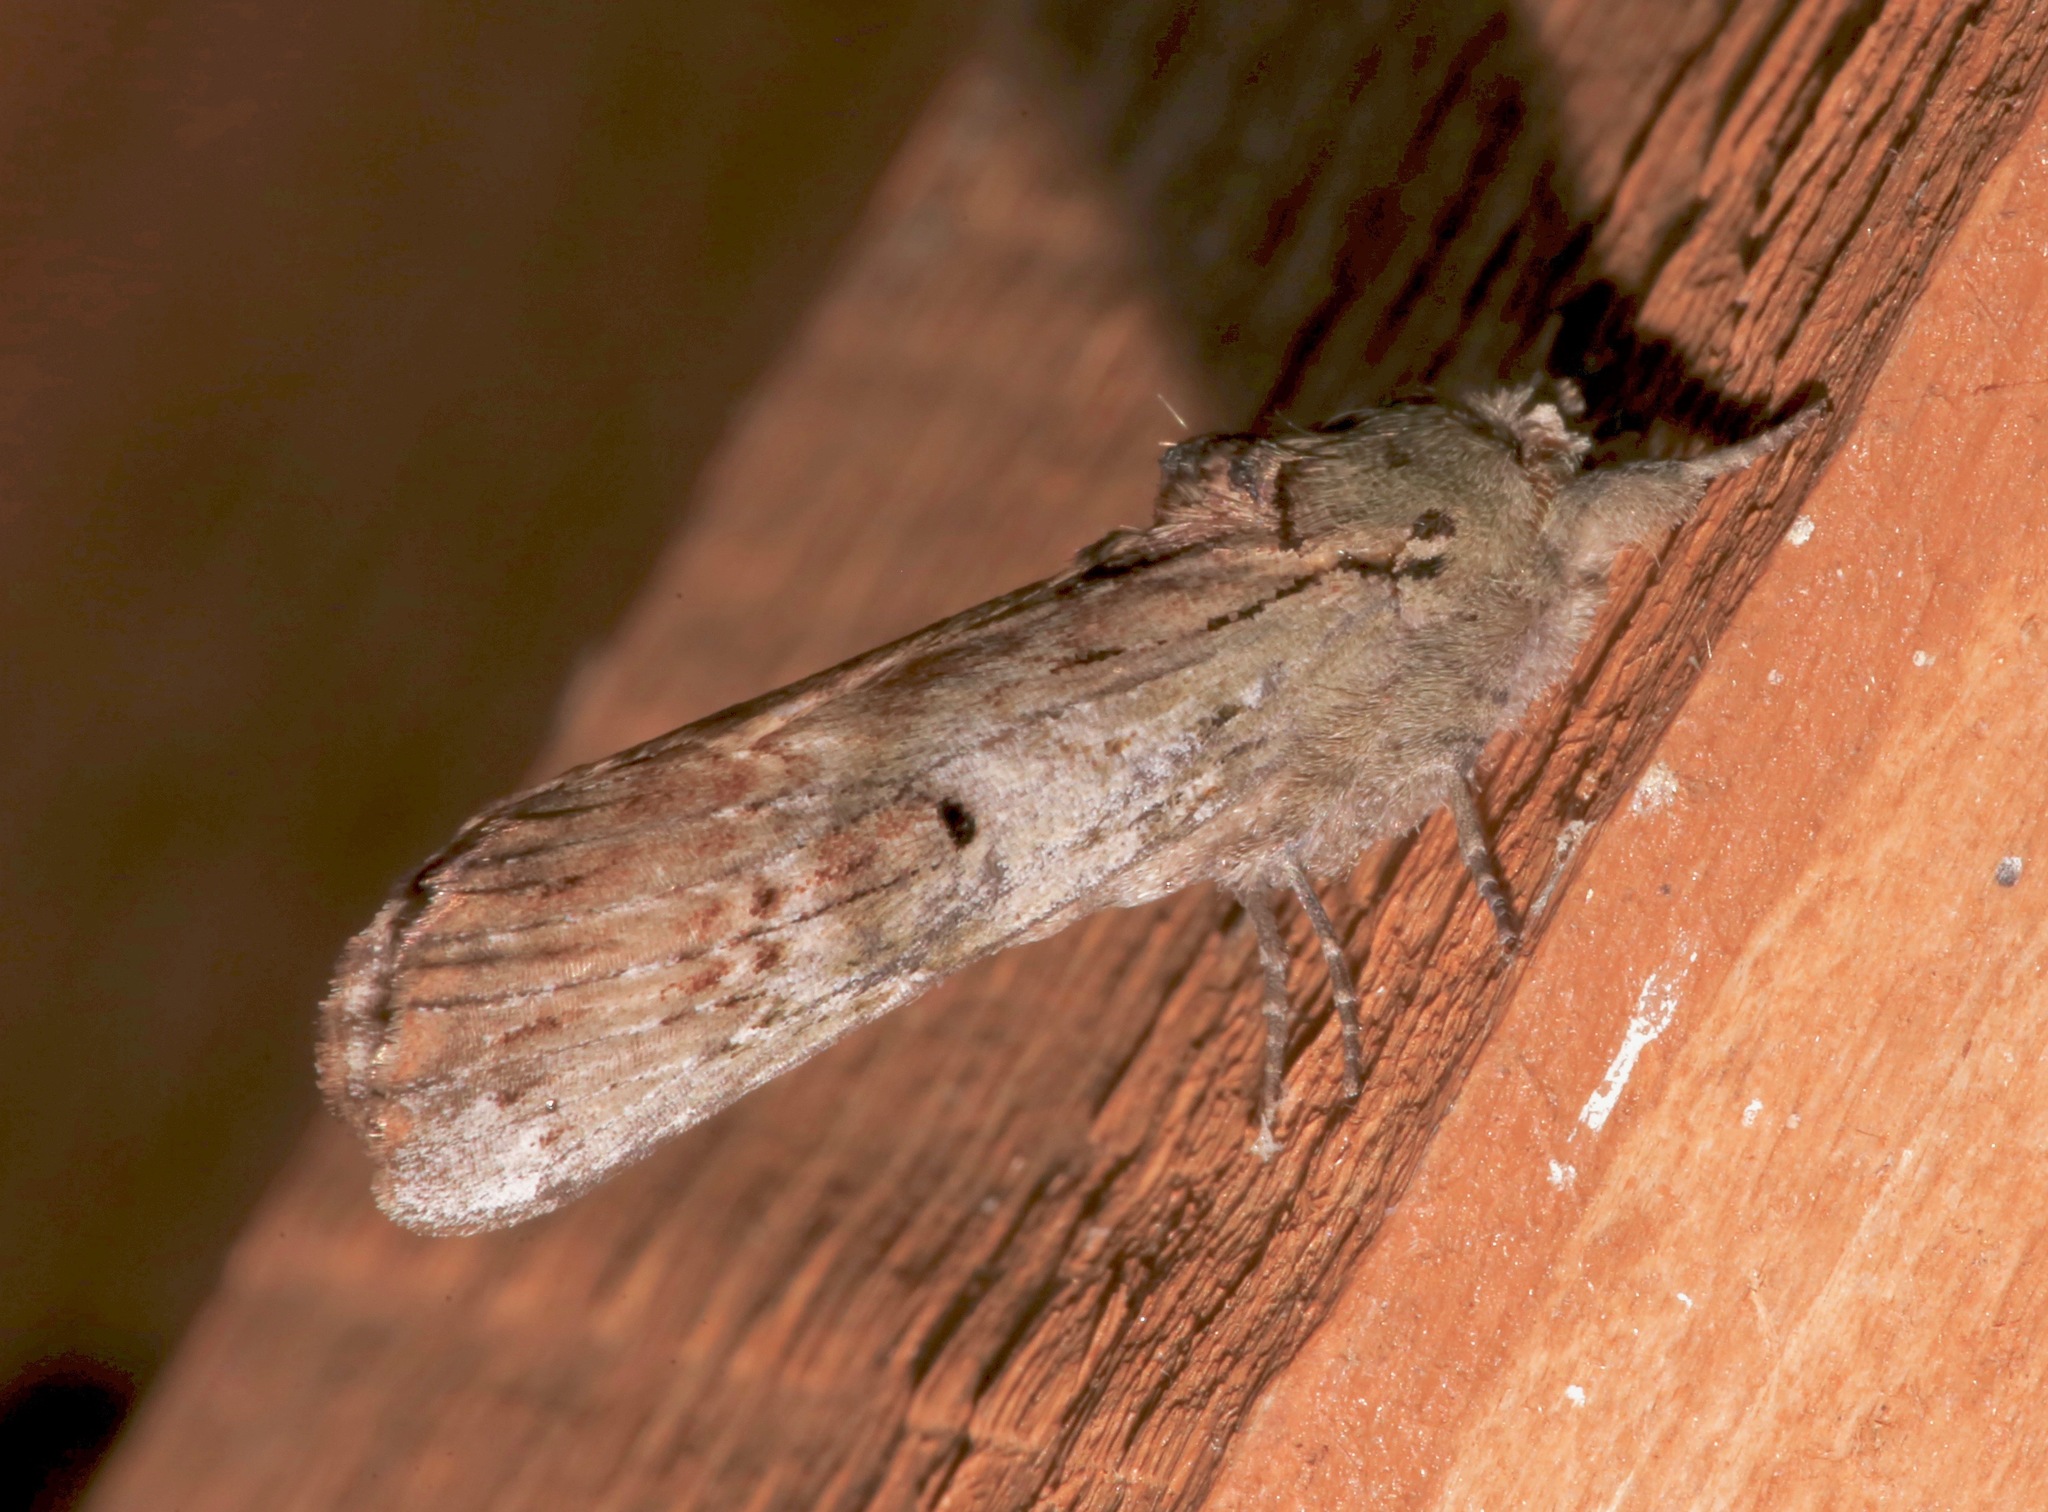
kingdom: Animalia
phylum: Arthropoda
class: Insecta
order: Lepidoptera
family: Notodontidae
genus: Schizura
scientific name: Schizura
